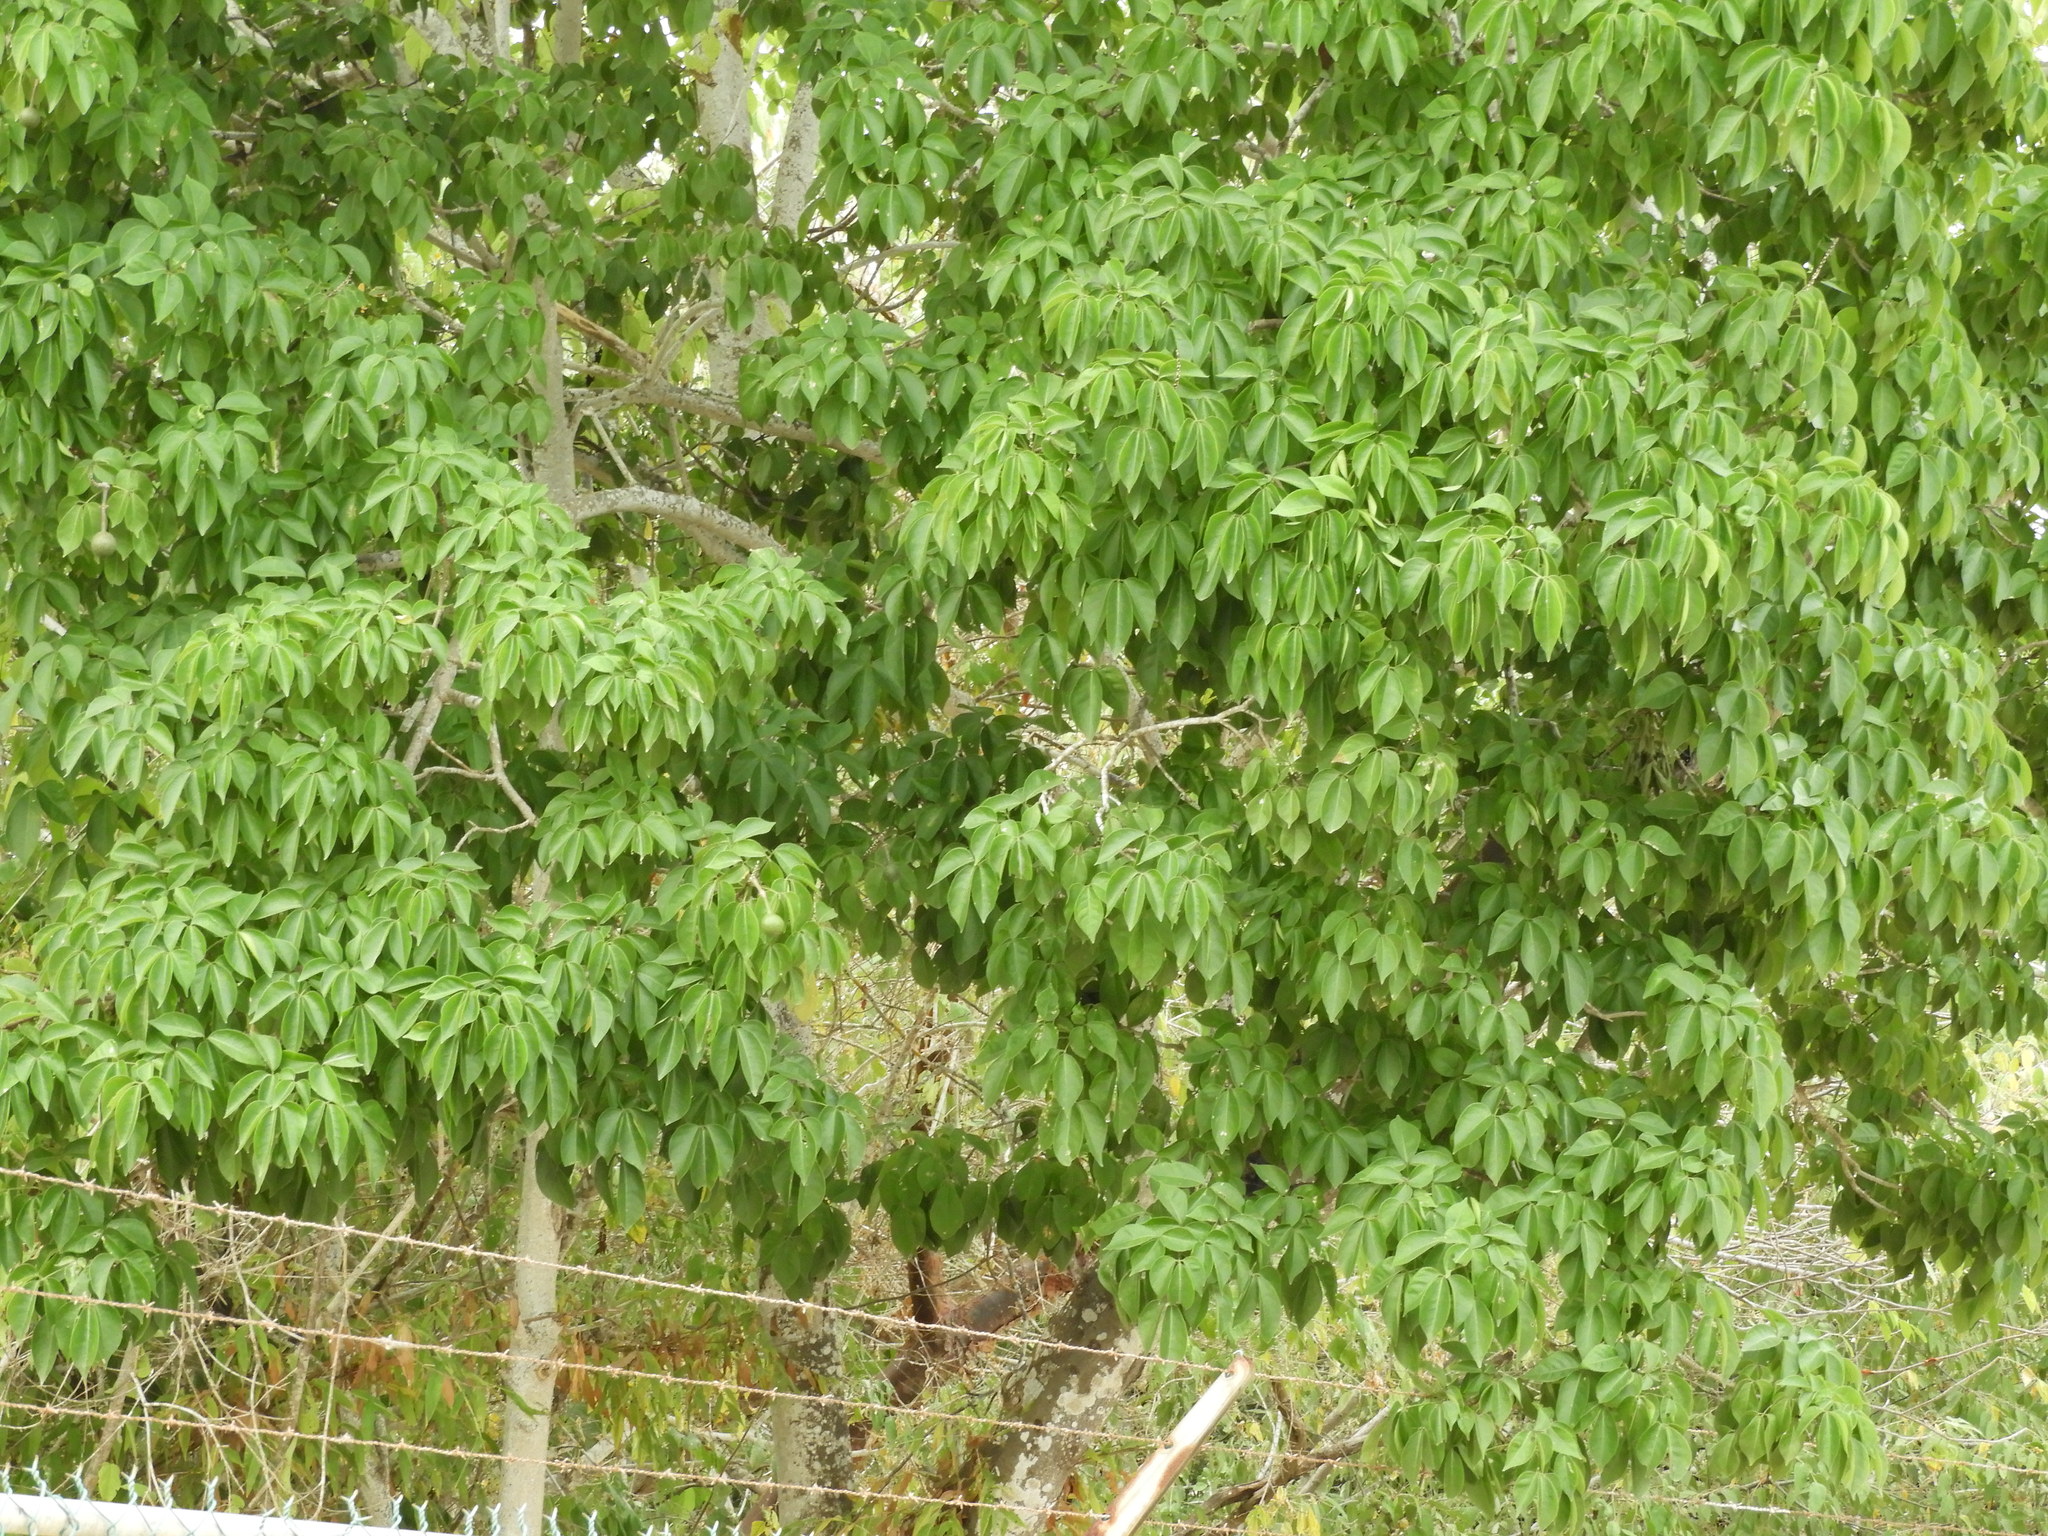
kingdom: Plantae
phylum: Tracheophyta
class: Magnoliopsida
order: Brassicales
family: Capparaceae
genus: Crateva
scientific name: Crateva tapia
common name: Garlic-pear
